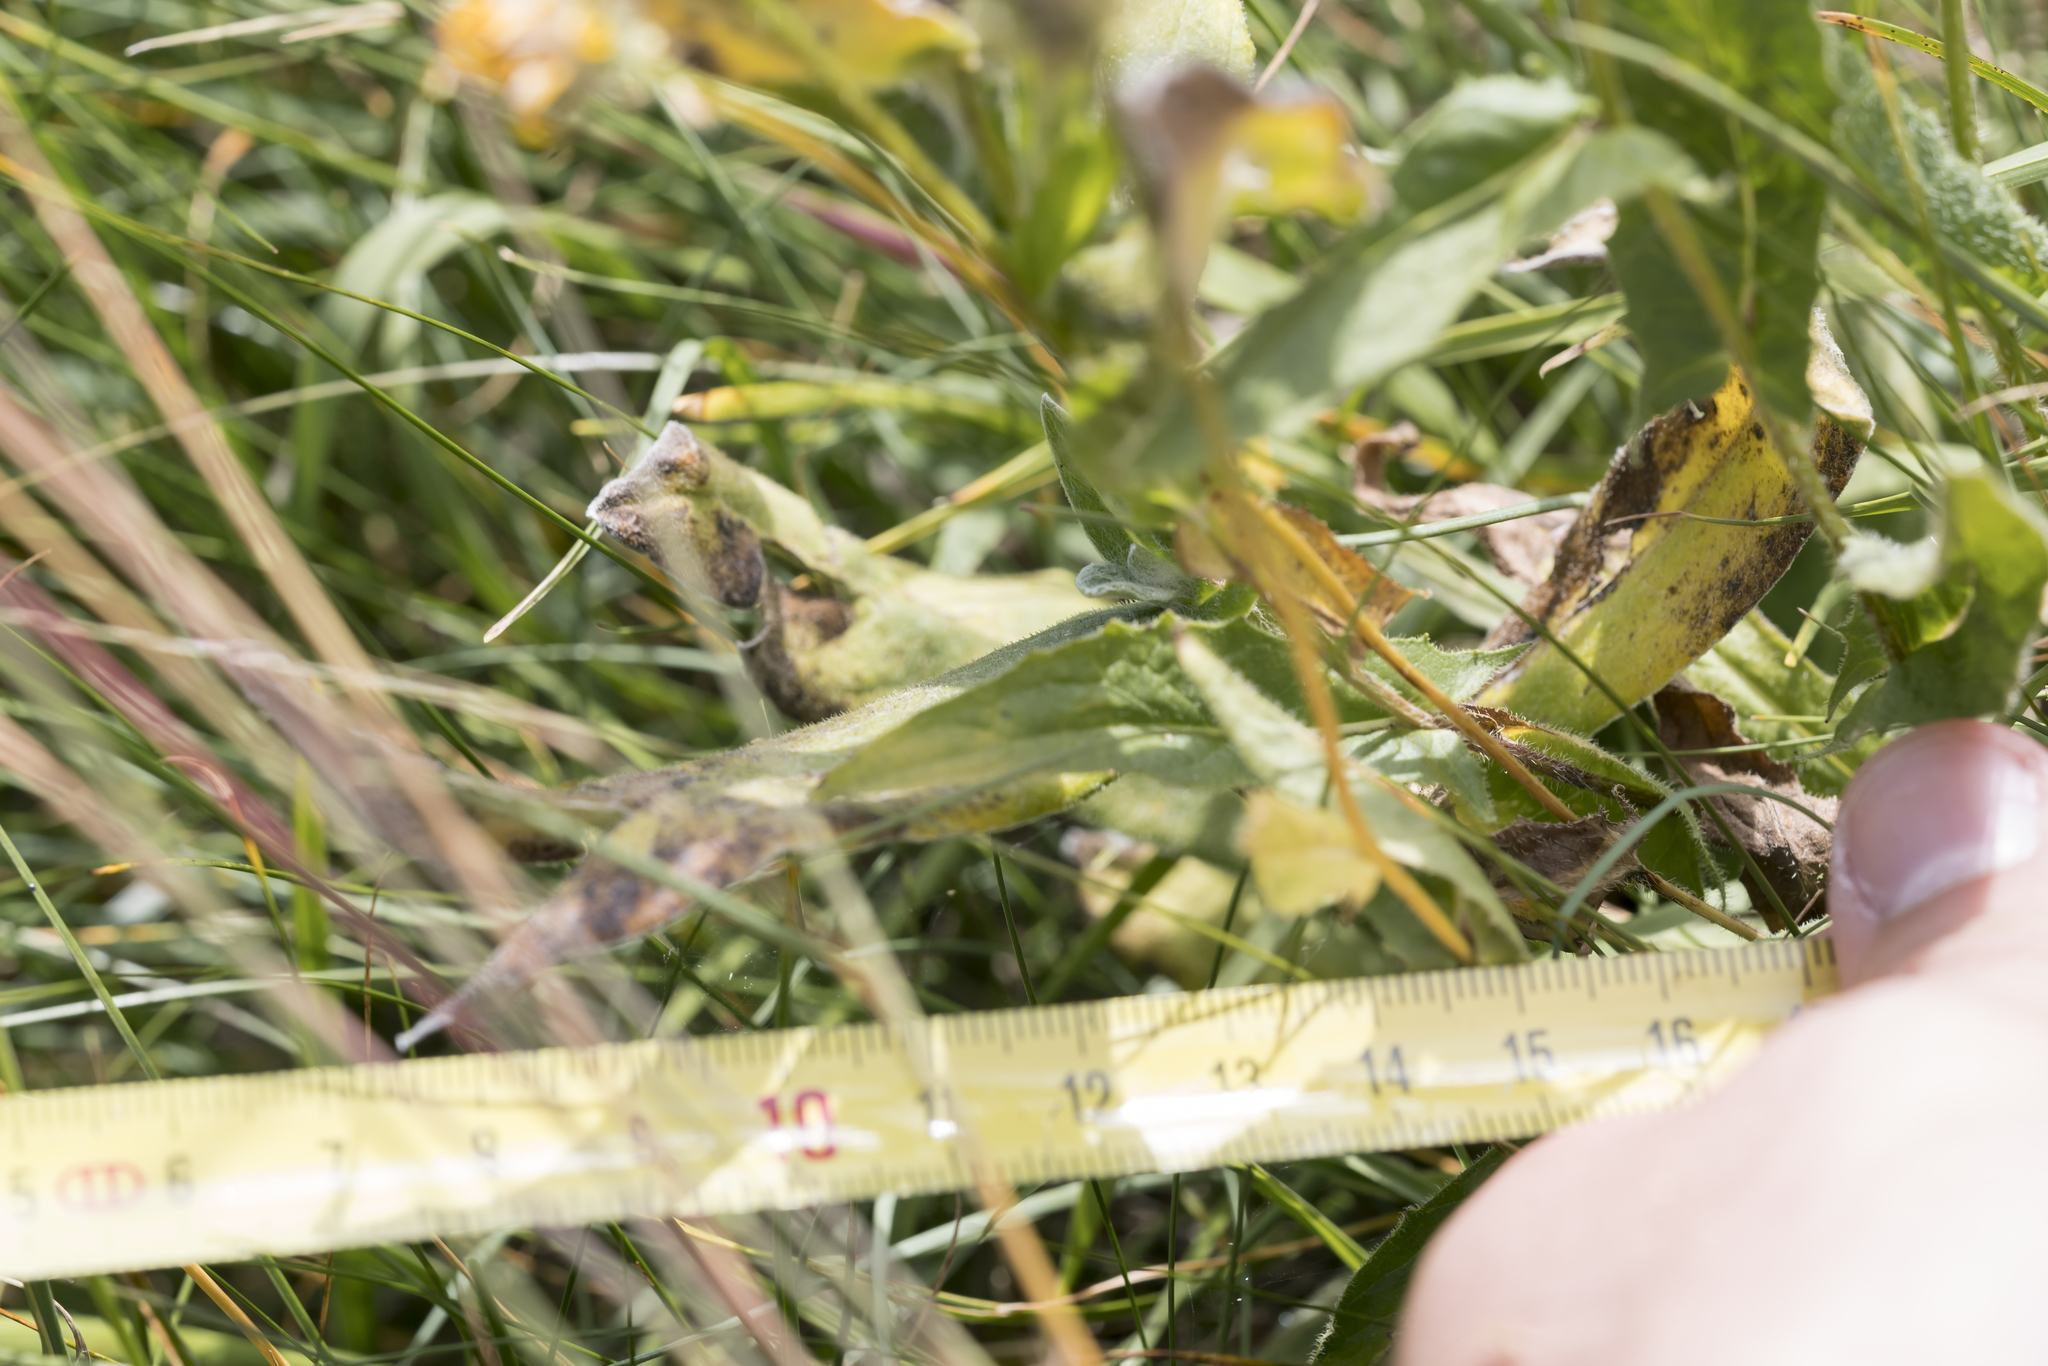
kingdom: Plantae
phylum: Tracheophyta
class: Magnoliopsida
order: Asterales
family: Asteraceae
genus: Centaurea
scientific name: Centaurea montana
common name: Perennial cornflower
